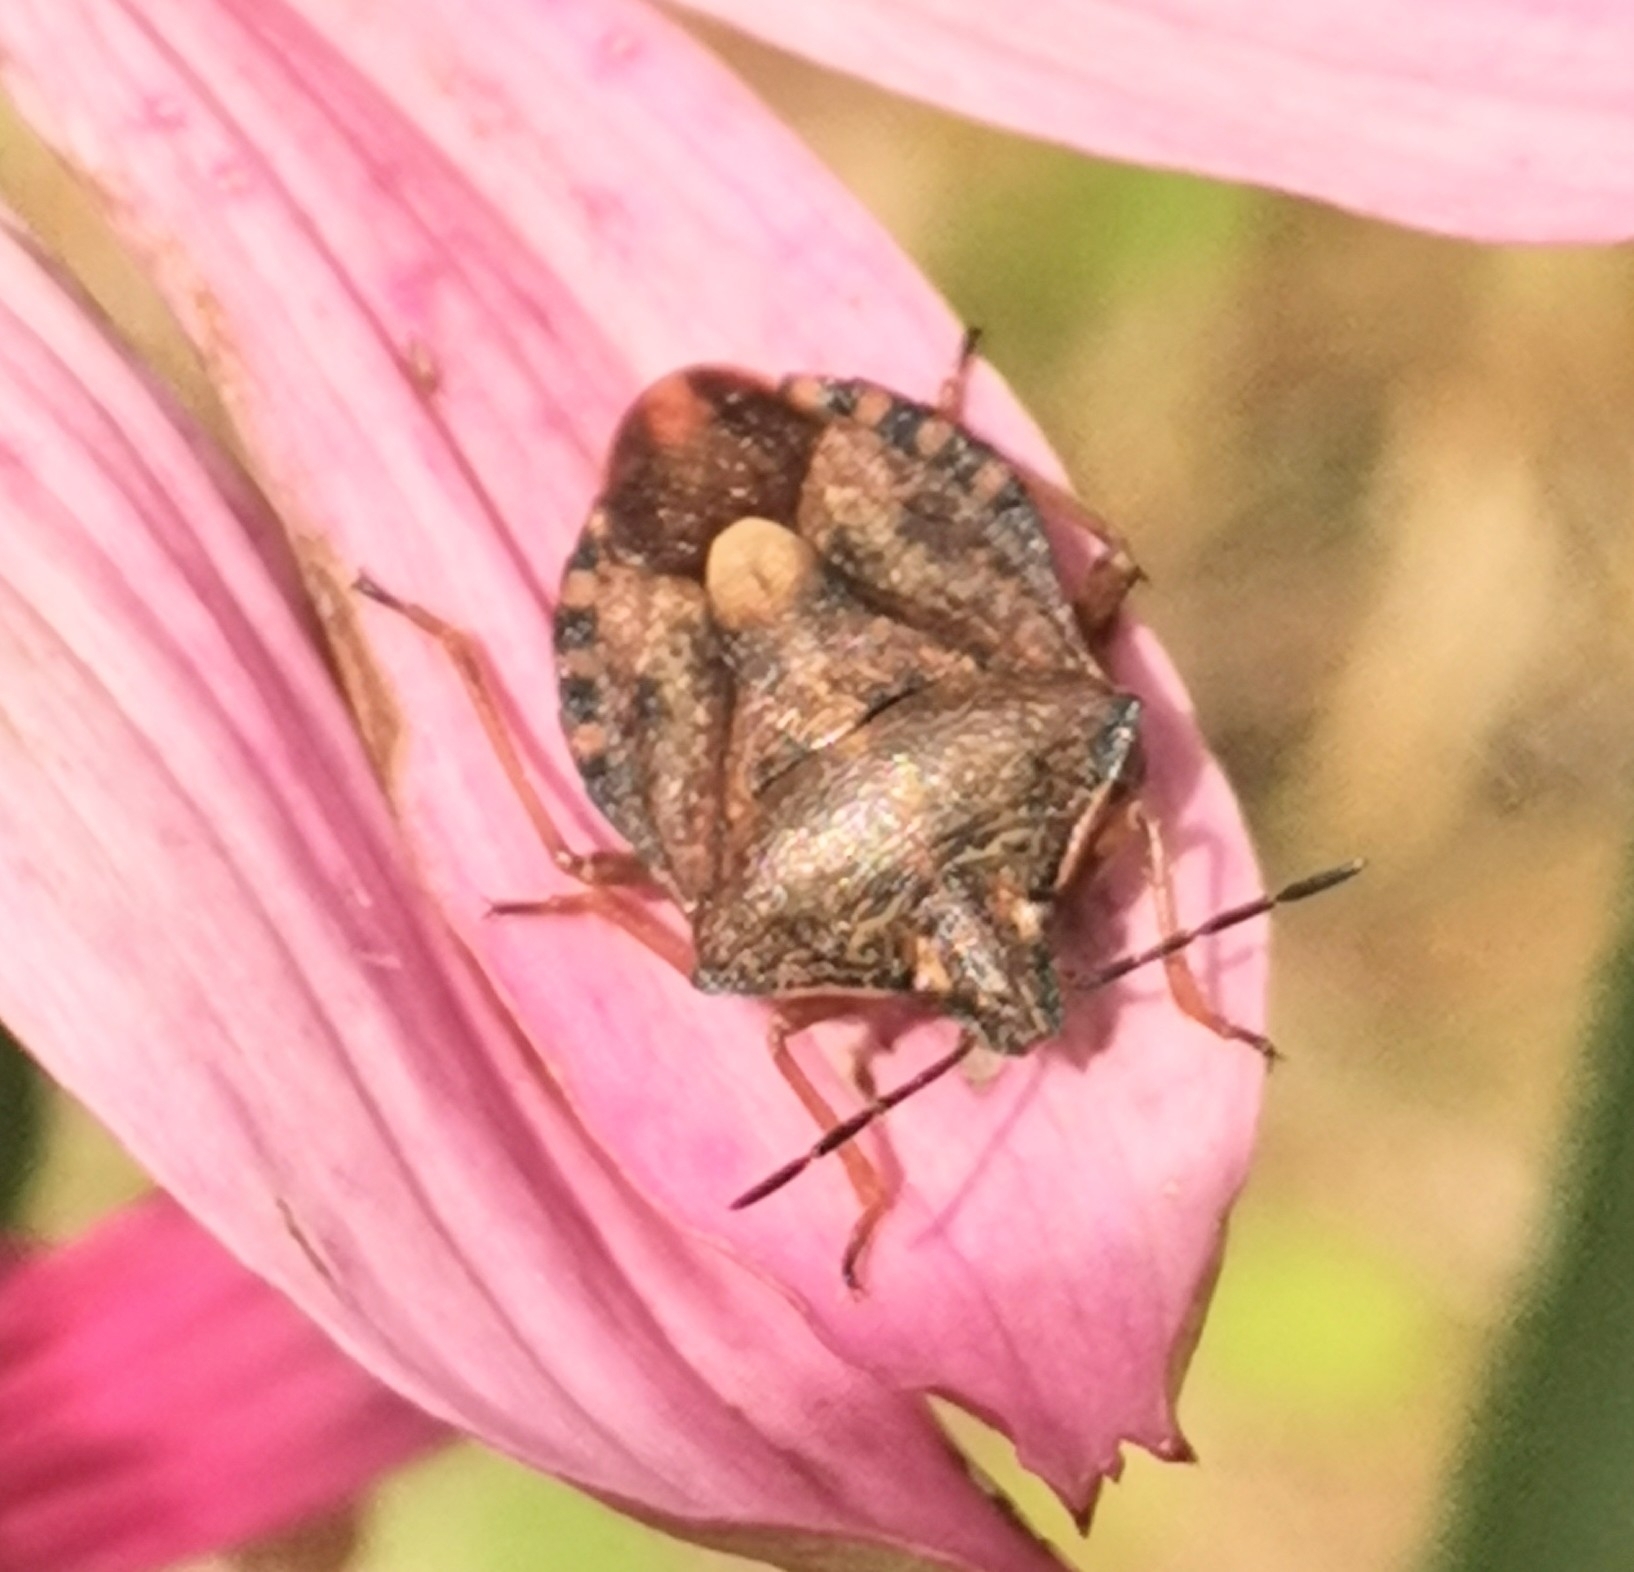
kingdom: Animalia
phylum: Arthropoda
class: Insecta
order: Hemiptera
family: Pentatomidae
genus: Carpocoris
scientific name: Carpocoris purpureipennis
